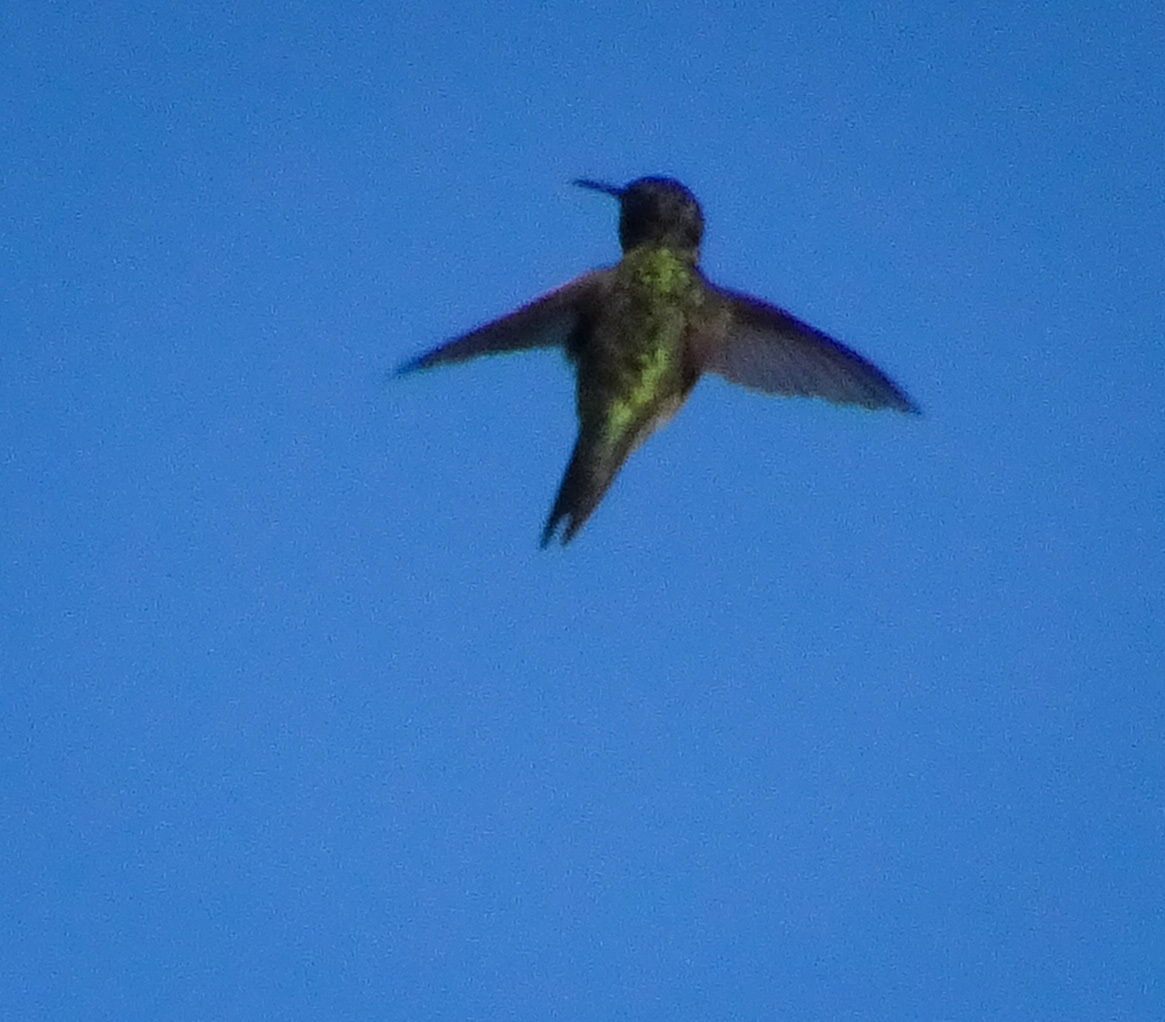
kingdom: Animalia
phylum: Chordata
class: Aves
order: Apodiformes
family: Trochilidae
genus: Archilochus
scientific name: Archilochus colubris
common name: Ruby-throated hummingbird
